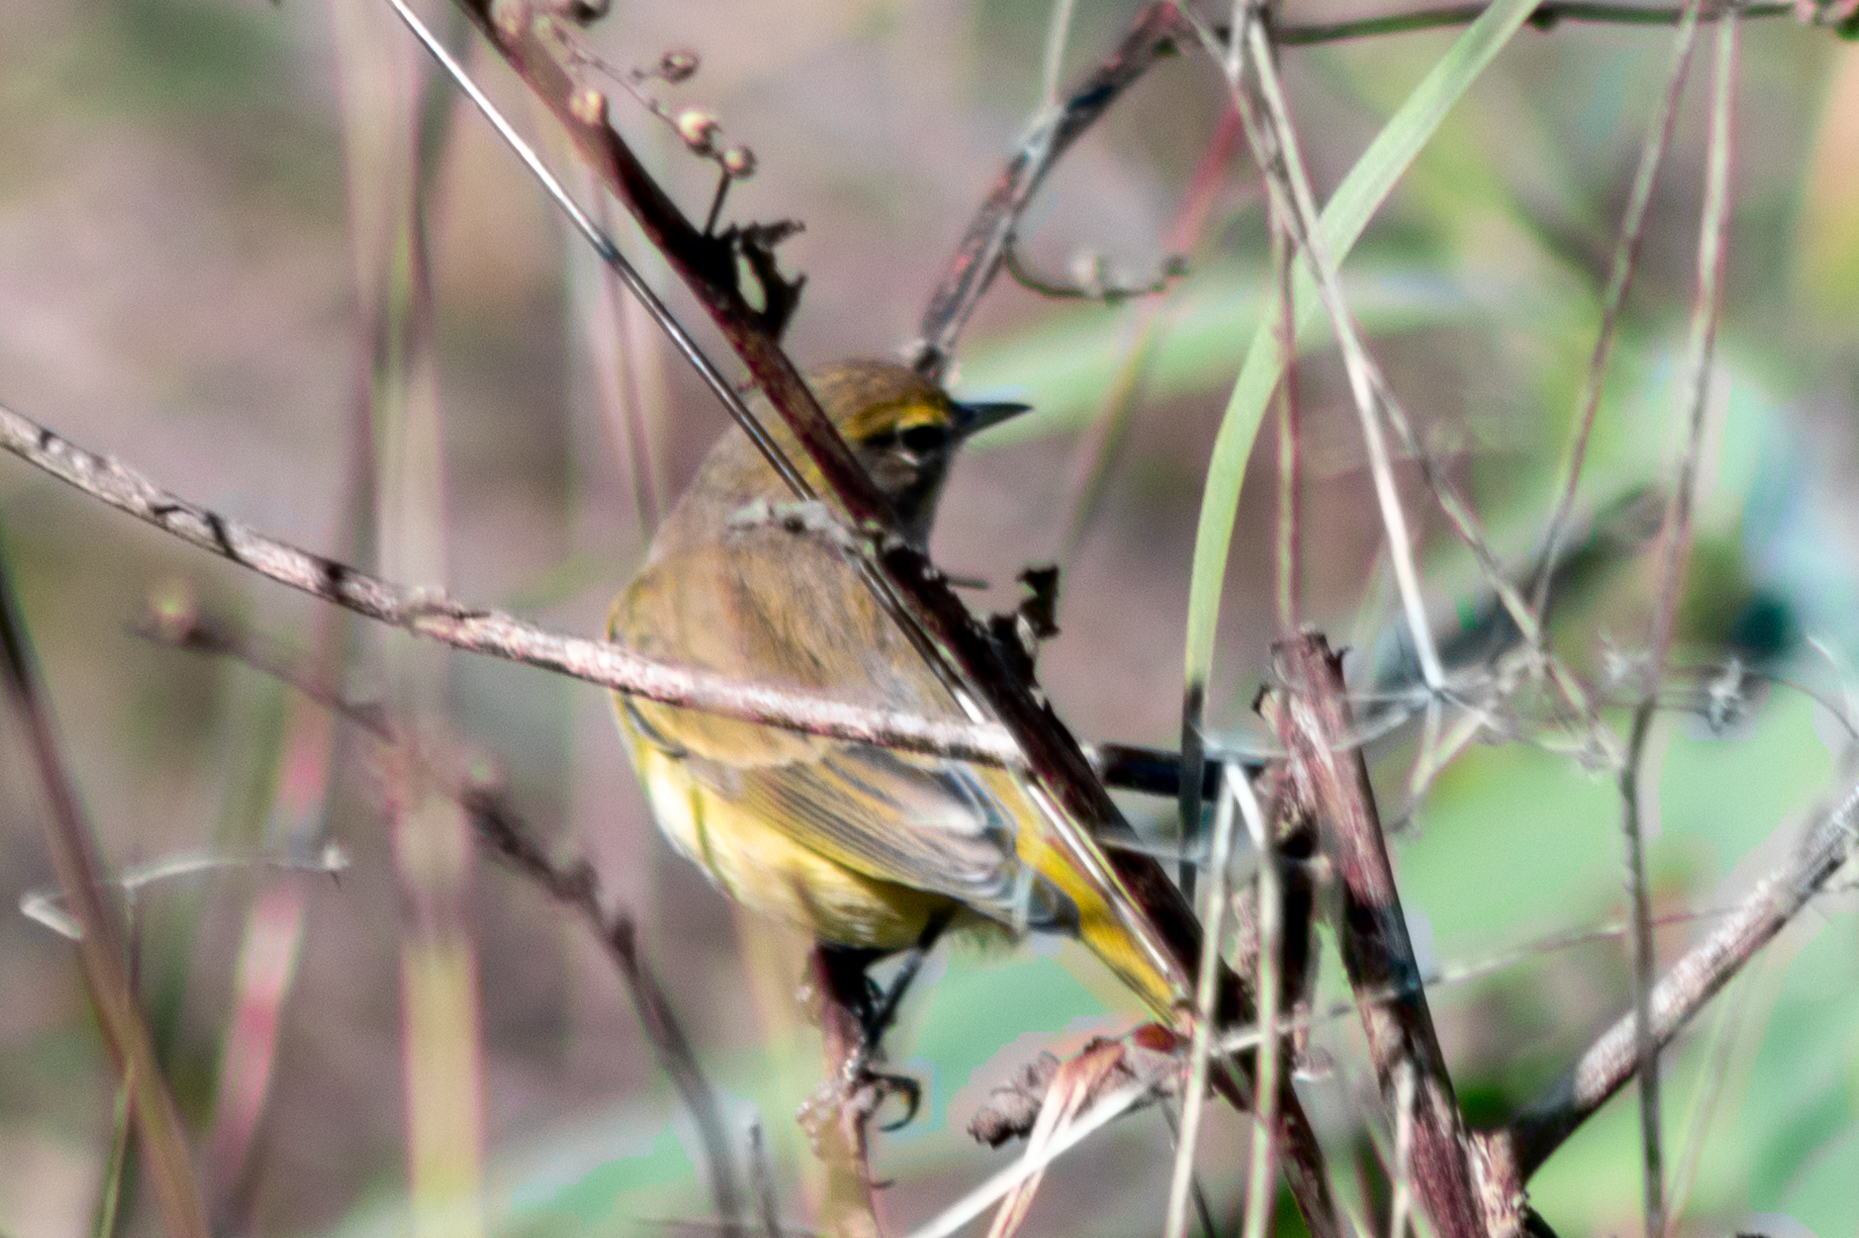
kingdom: Animalia
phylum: Chordata
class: Aves
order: Passeriformes
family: Parulidae
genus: Setophaga
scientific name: Setophaga palmarum
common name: Palm warbler
